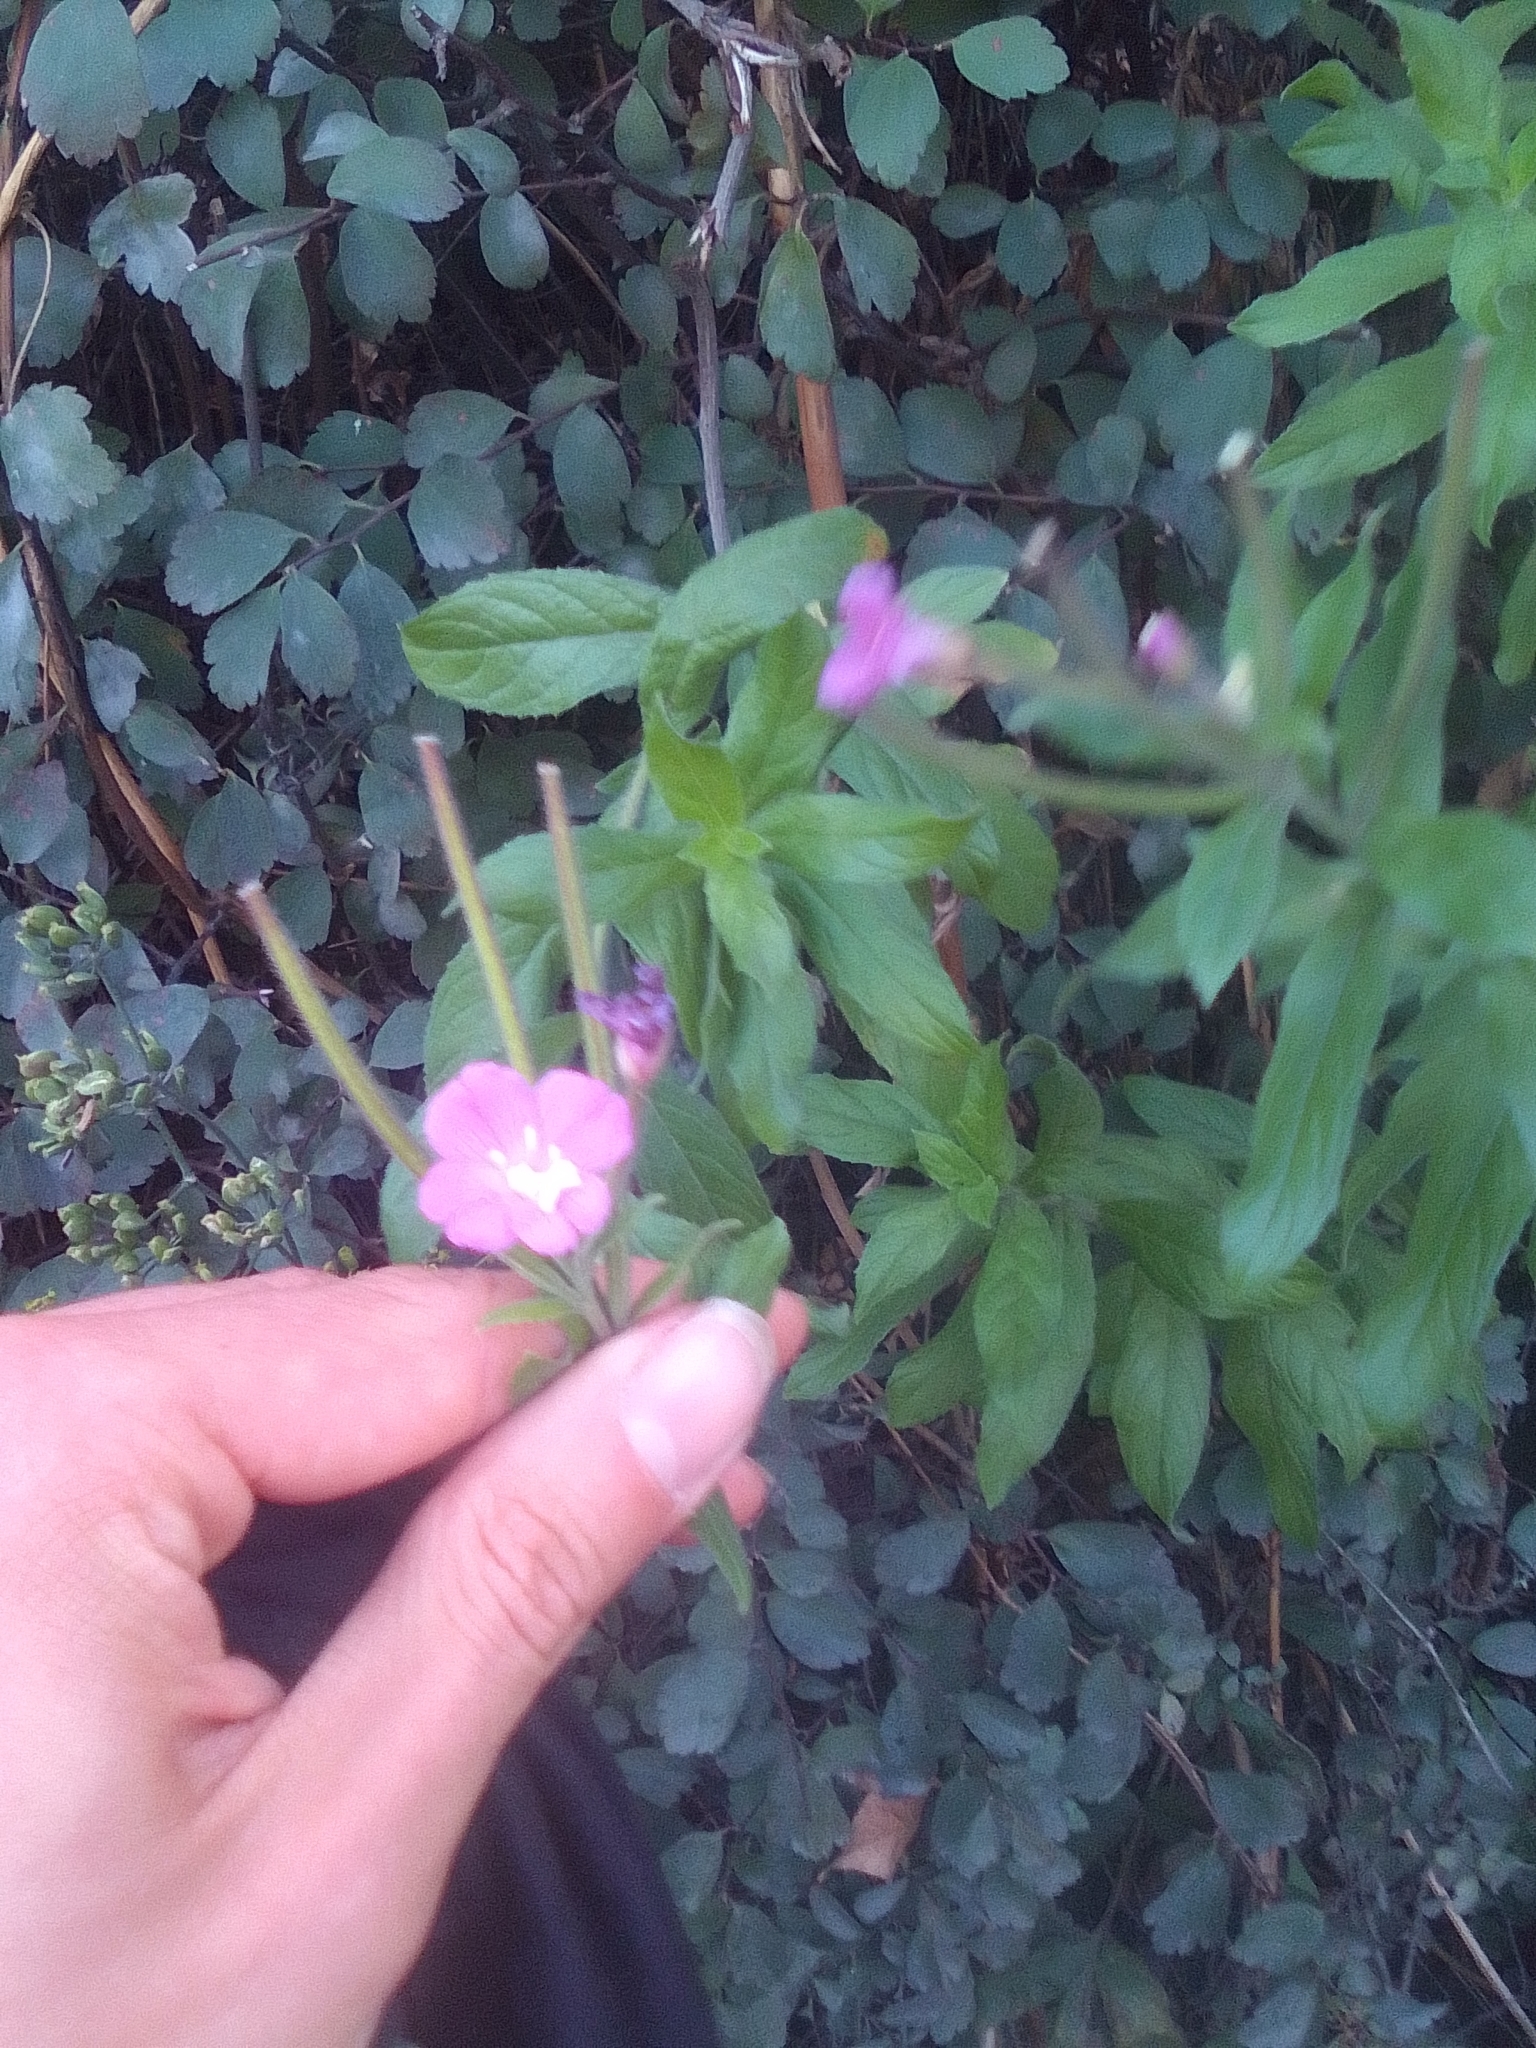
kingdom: Plantae
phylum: Tracheophyta
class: Magnoliopsida
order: Myrtales
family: Onagraceae
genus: Epilobium
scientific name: Epilobium hirsutum
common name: Great willowherb
